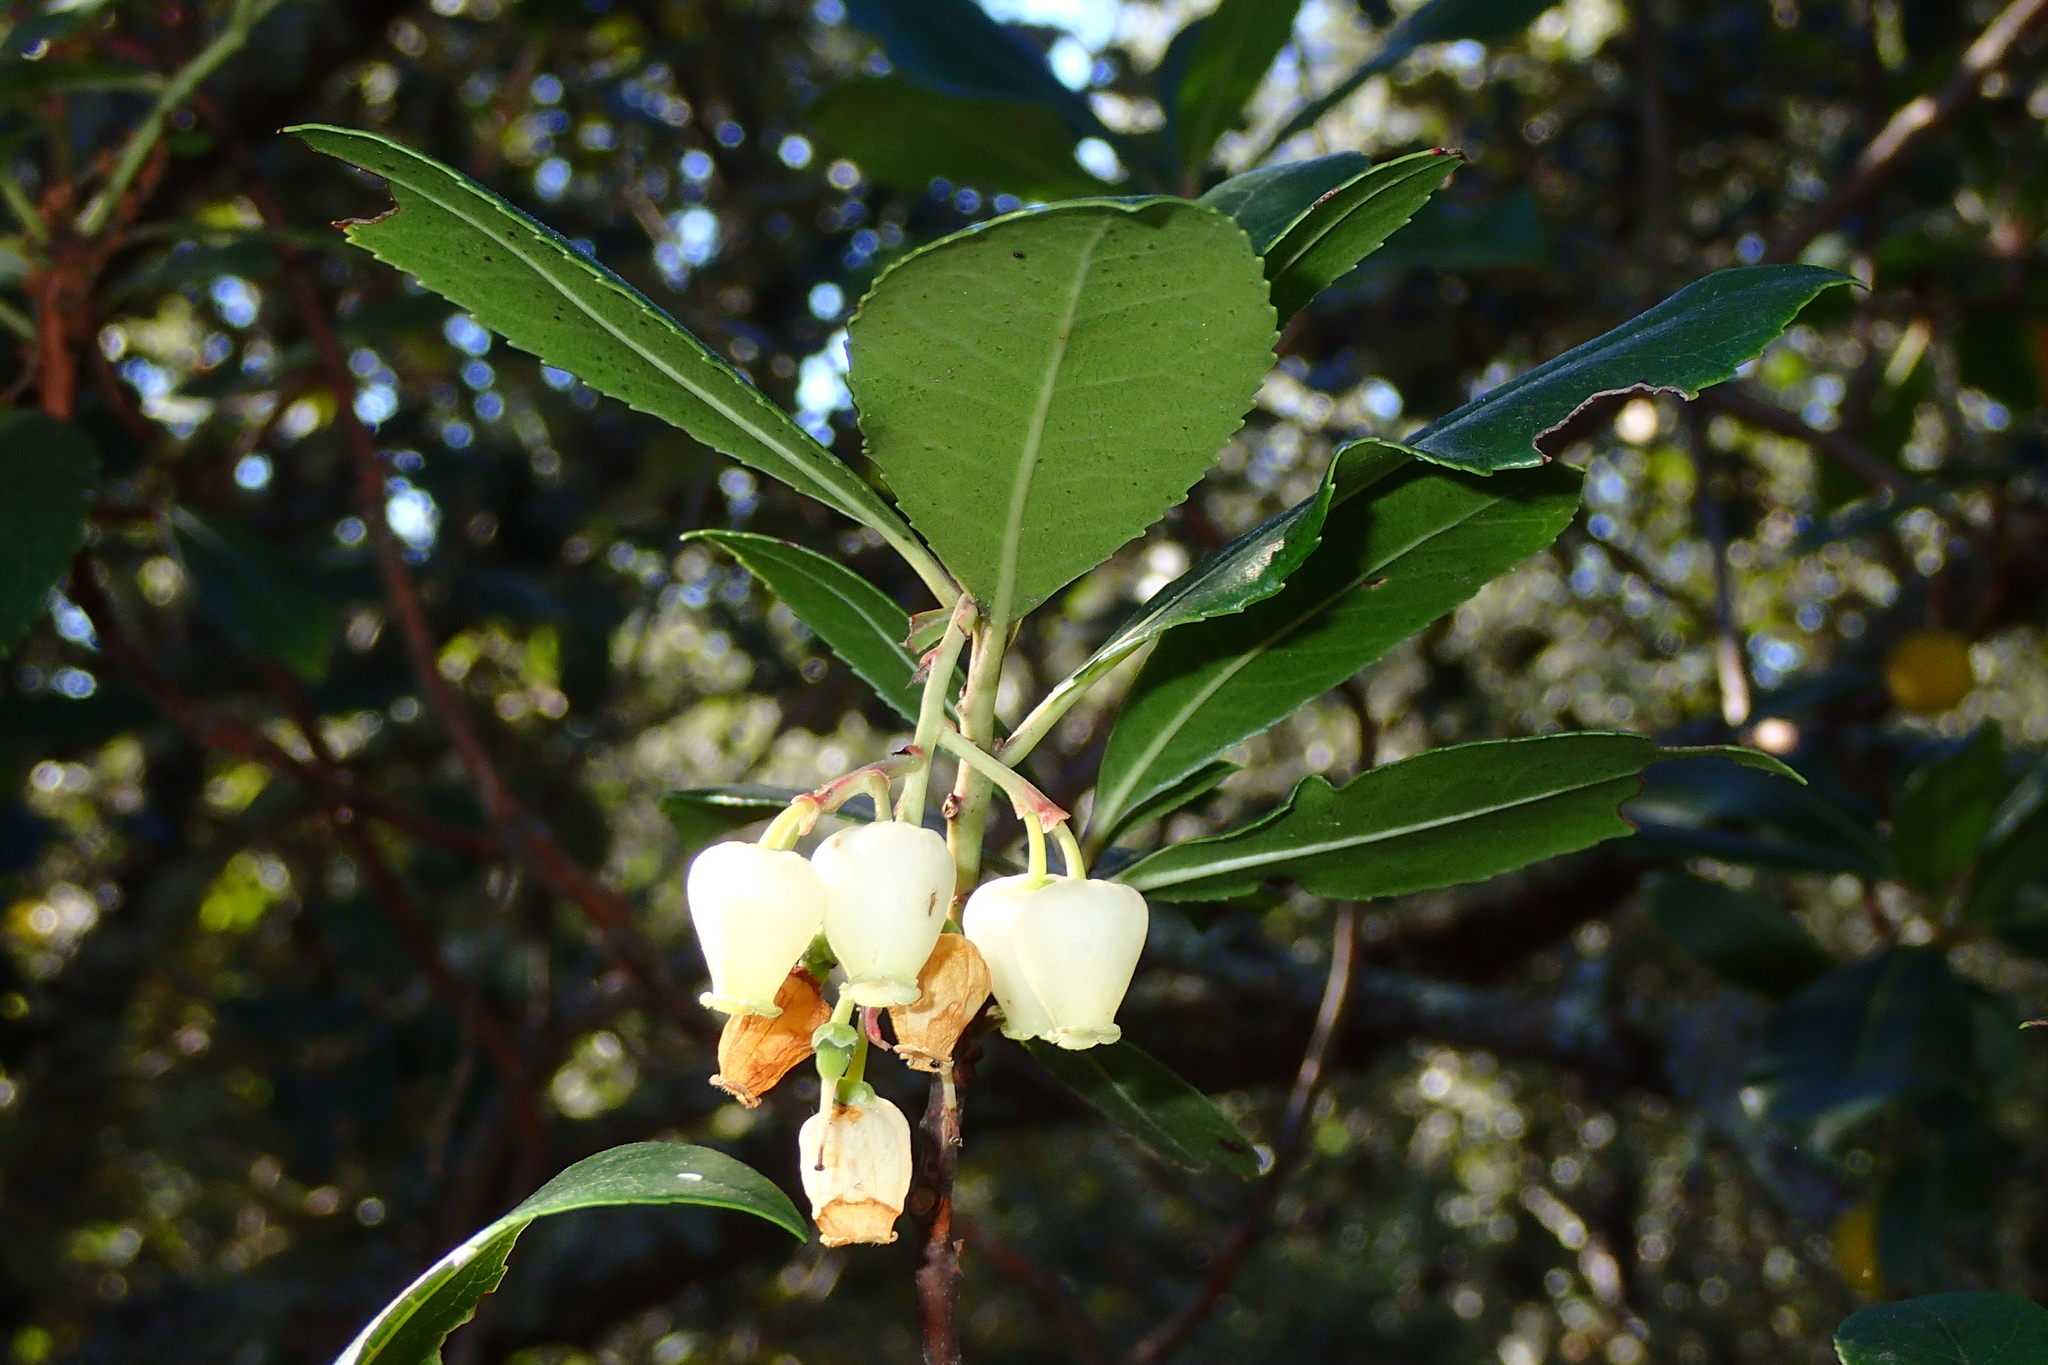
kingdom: Plantae
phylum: Tracheophyta
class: Magnoliopsida
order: Ericales
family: Ericaceae
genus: Arbutus
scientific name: Arbutus unedo
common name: Strawberry-tree
